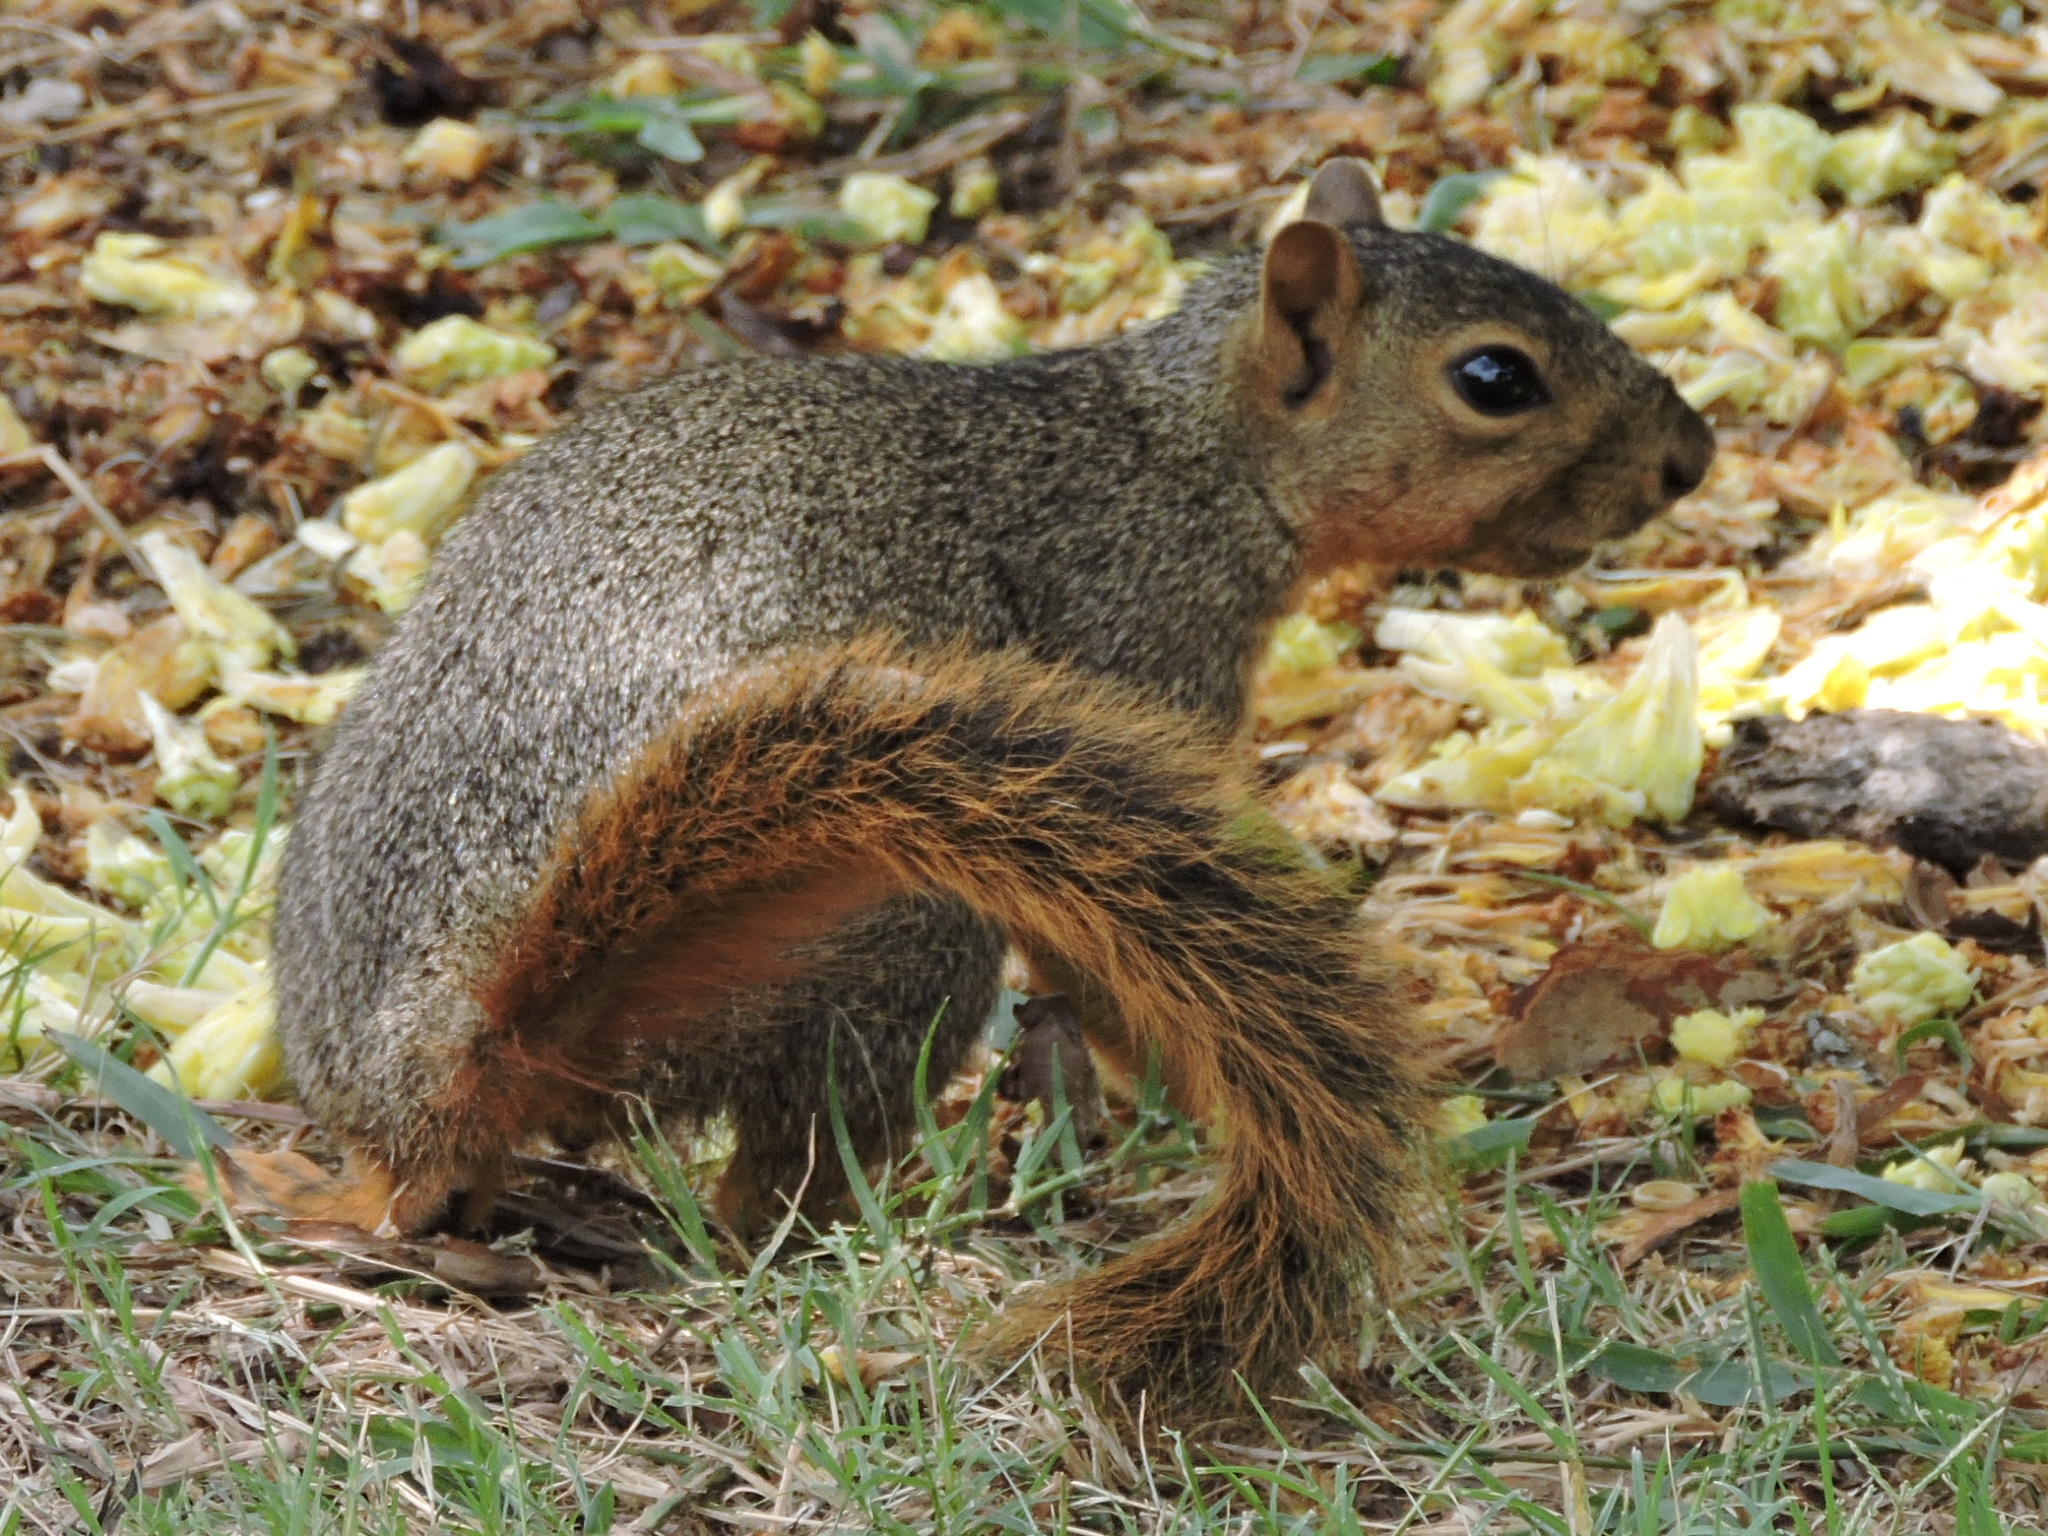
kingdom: Animalia
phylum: Chordata
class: Mammalia
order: Rodentia
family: Sciuridae
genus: Sciurus
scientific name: Sciurus niger
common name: Fox squirrel
